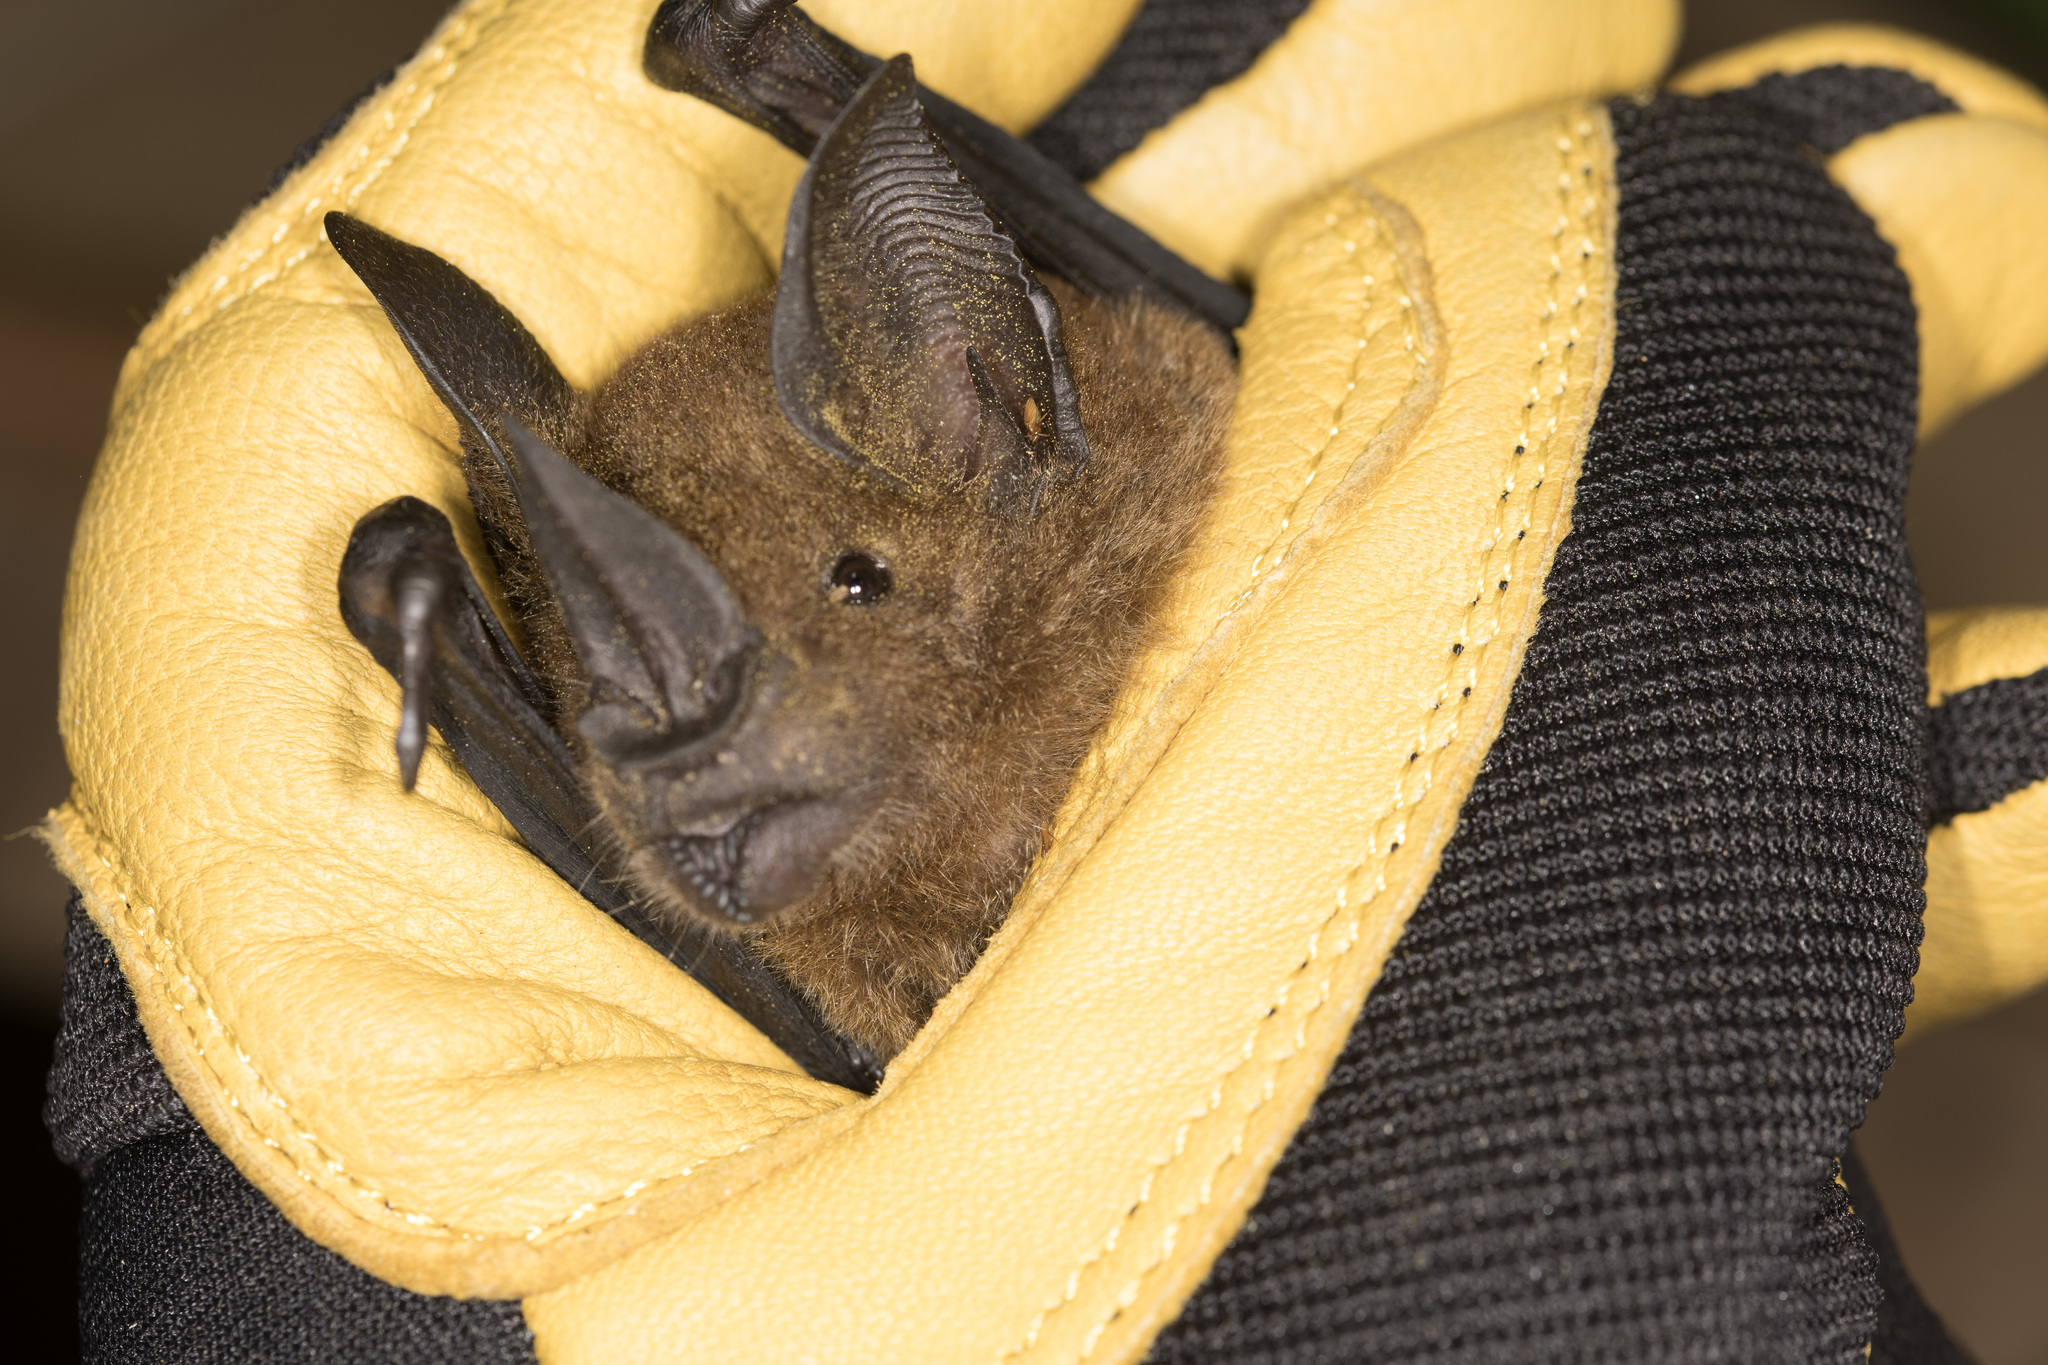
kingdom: Animalia
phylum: Chordata
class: Mammalia
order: Chiroptera
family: Phyllostomidae
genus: Phyllostomus
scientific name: Phyllostomus elongatus
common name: Lesser spear-nosed bat
